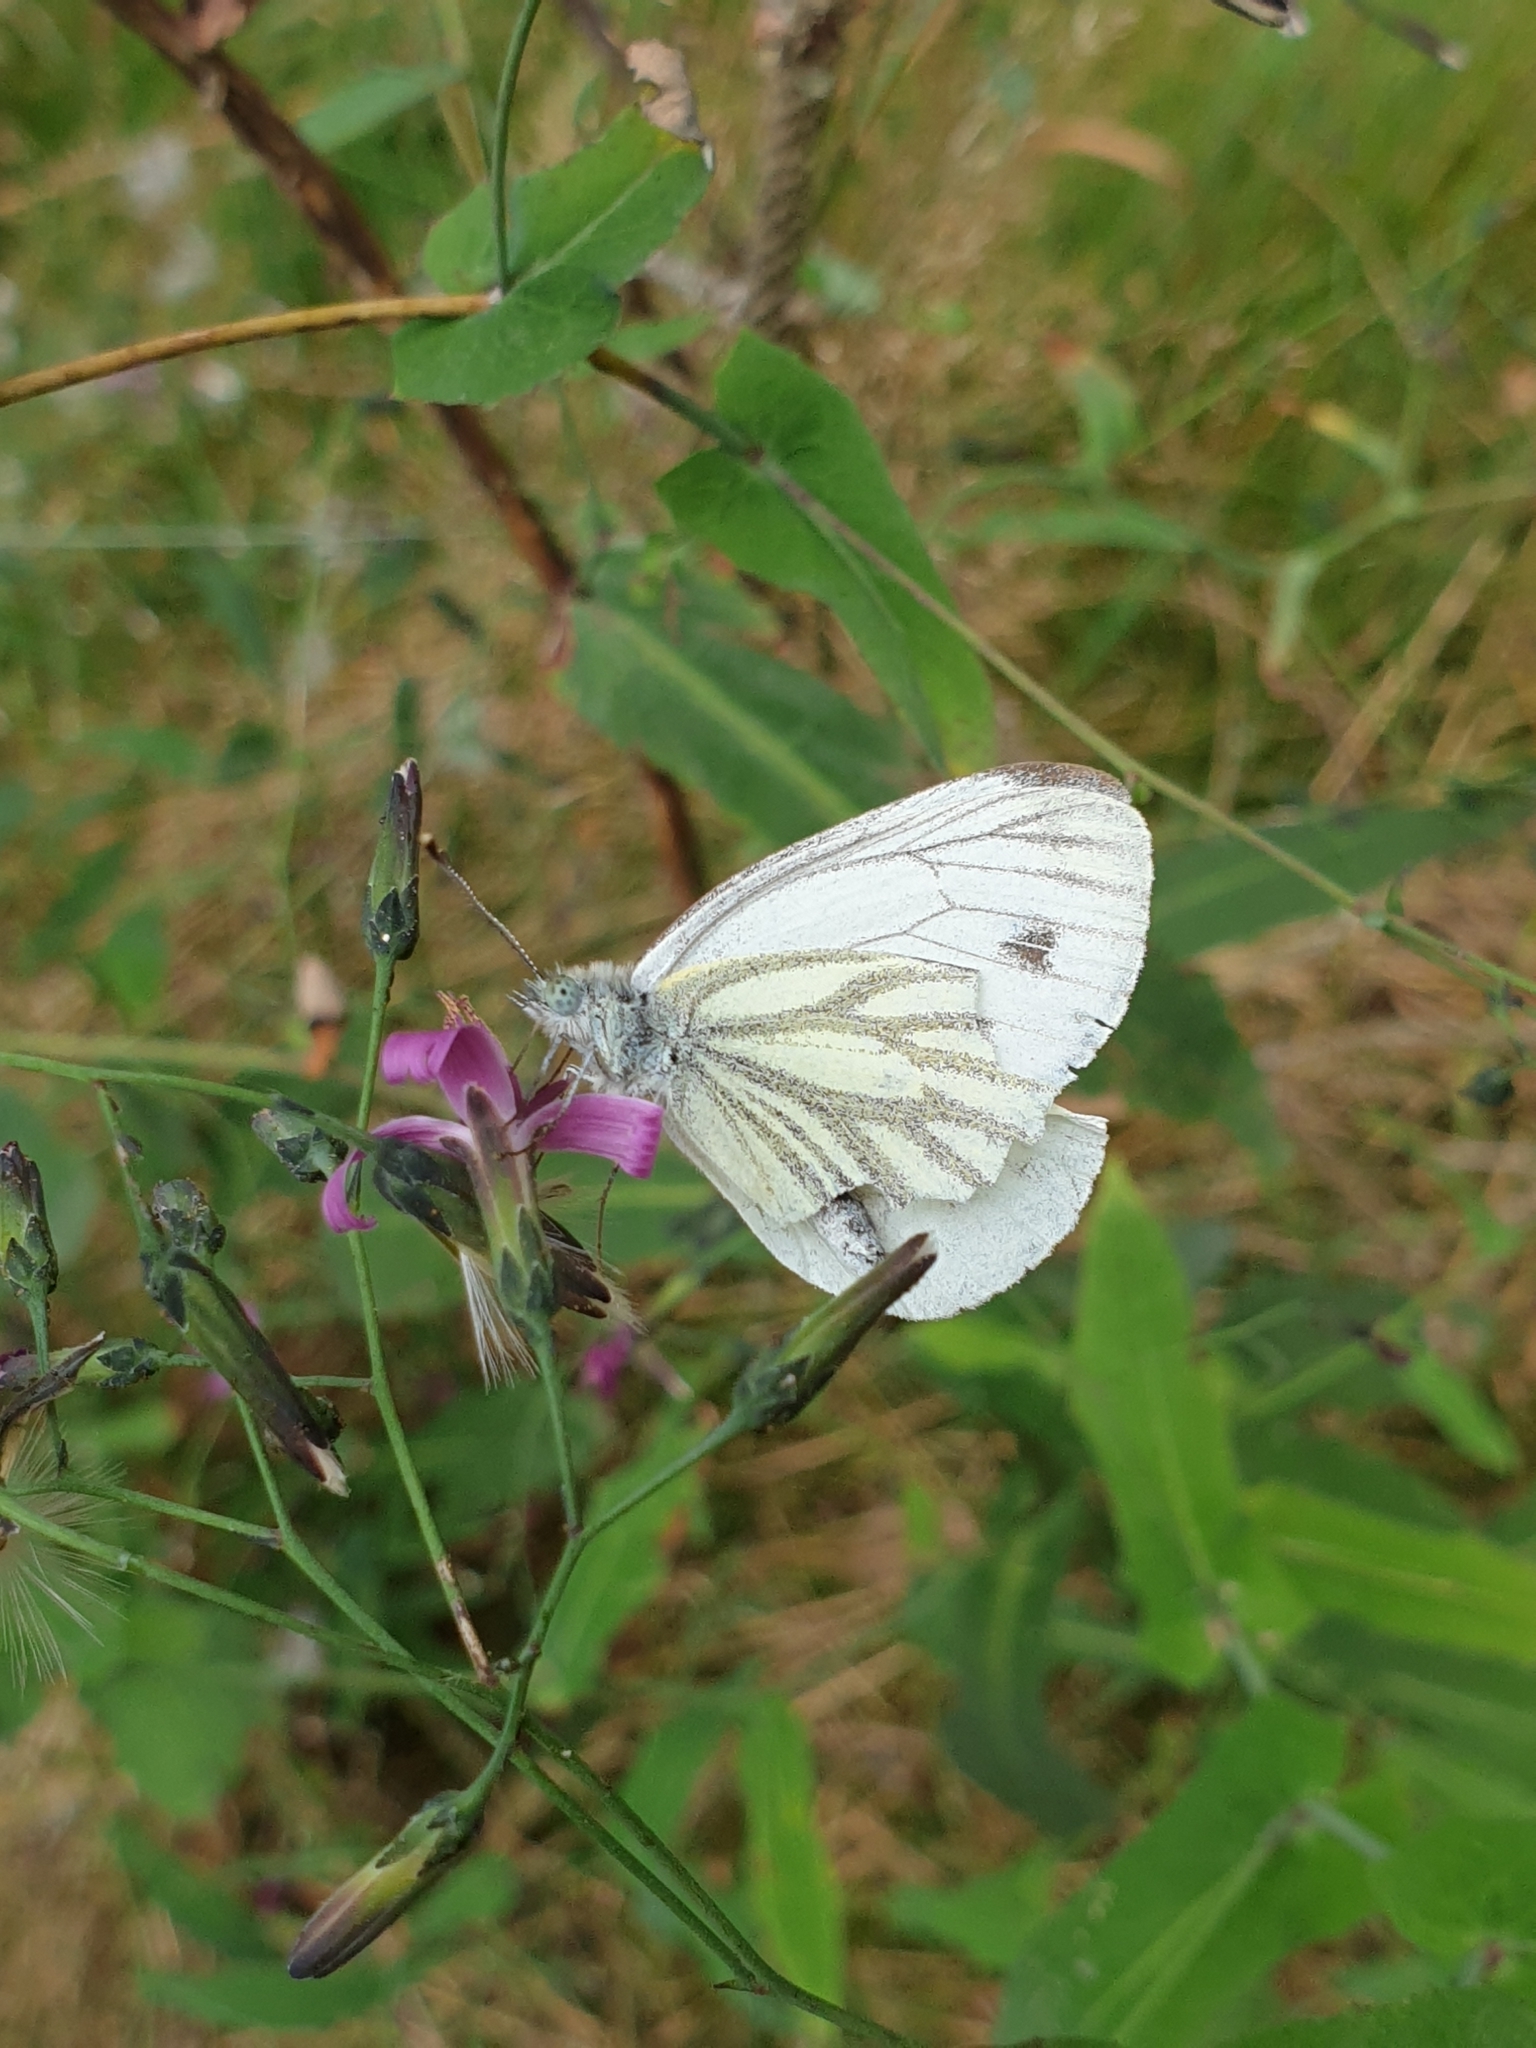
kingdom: Animalia
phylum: Arthropoda
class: Insecta
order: Lepidoptera
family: Pieridae
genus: Pieris
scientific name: Pieris napi
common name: Green-veined white
